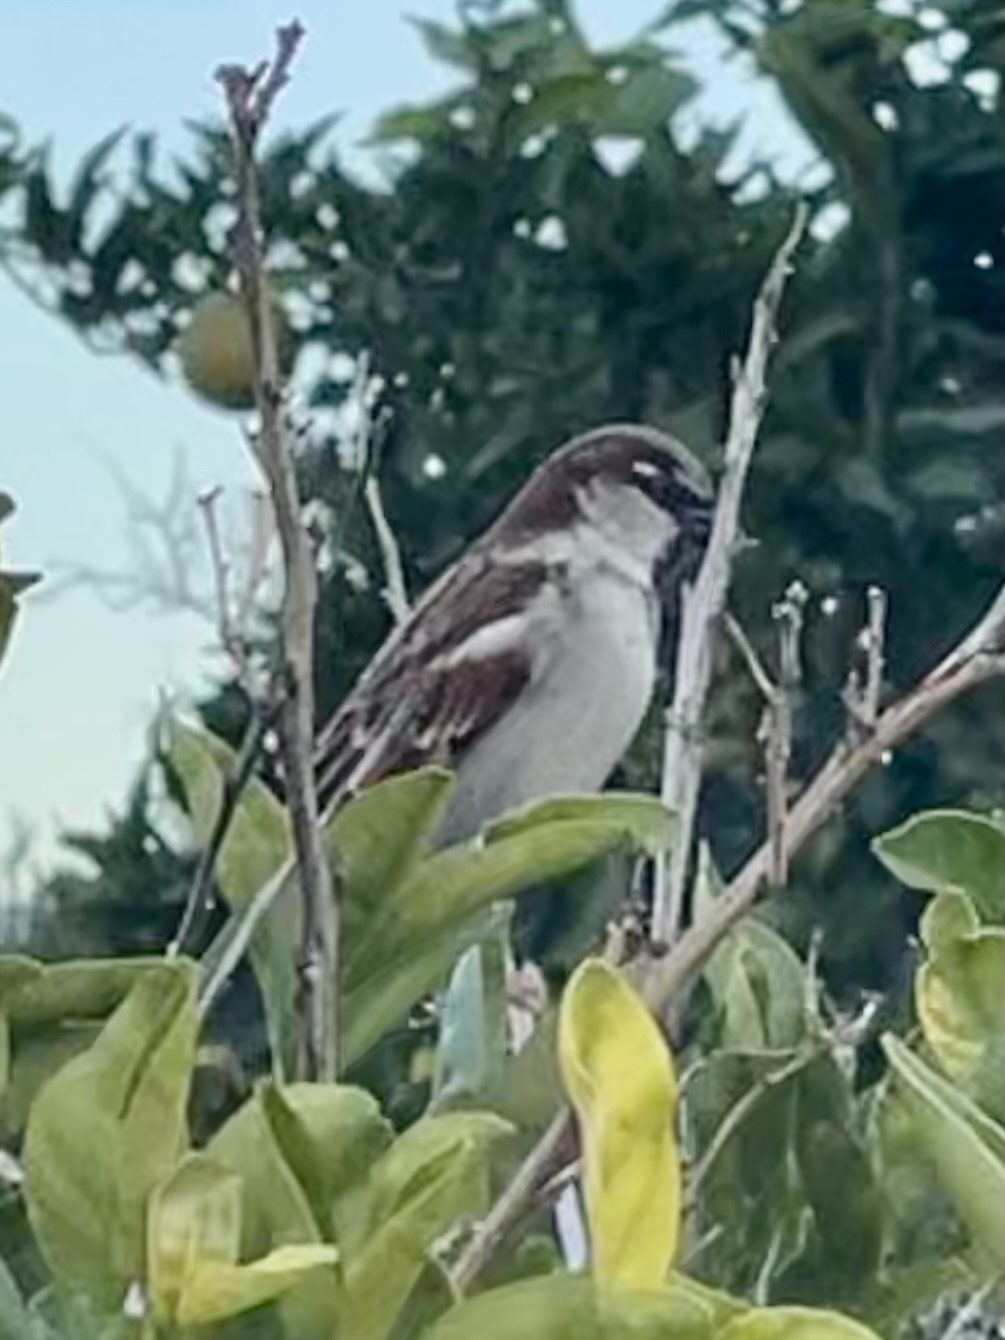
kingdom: Animalia
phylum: Chordata
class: Aves
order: Passeriformes
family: Passeridae
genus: Passer
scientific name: Passer domesticus
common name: House sparrow
